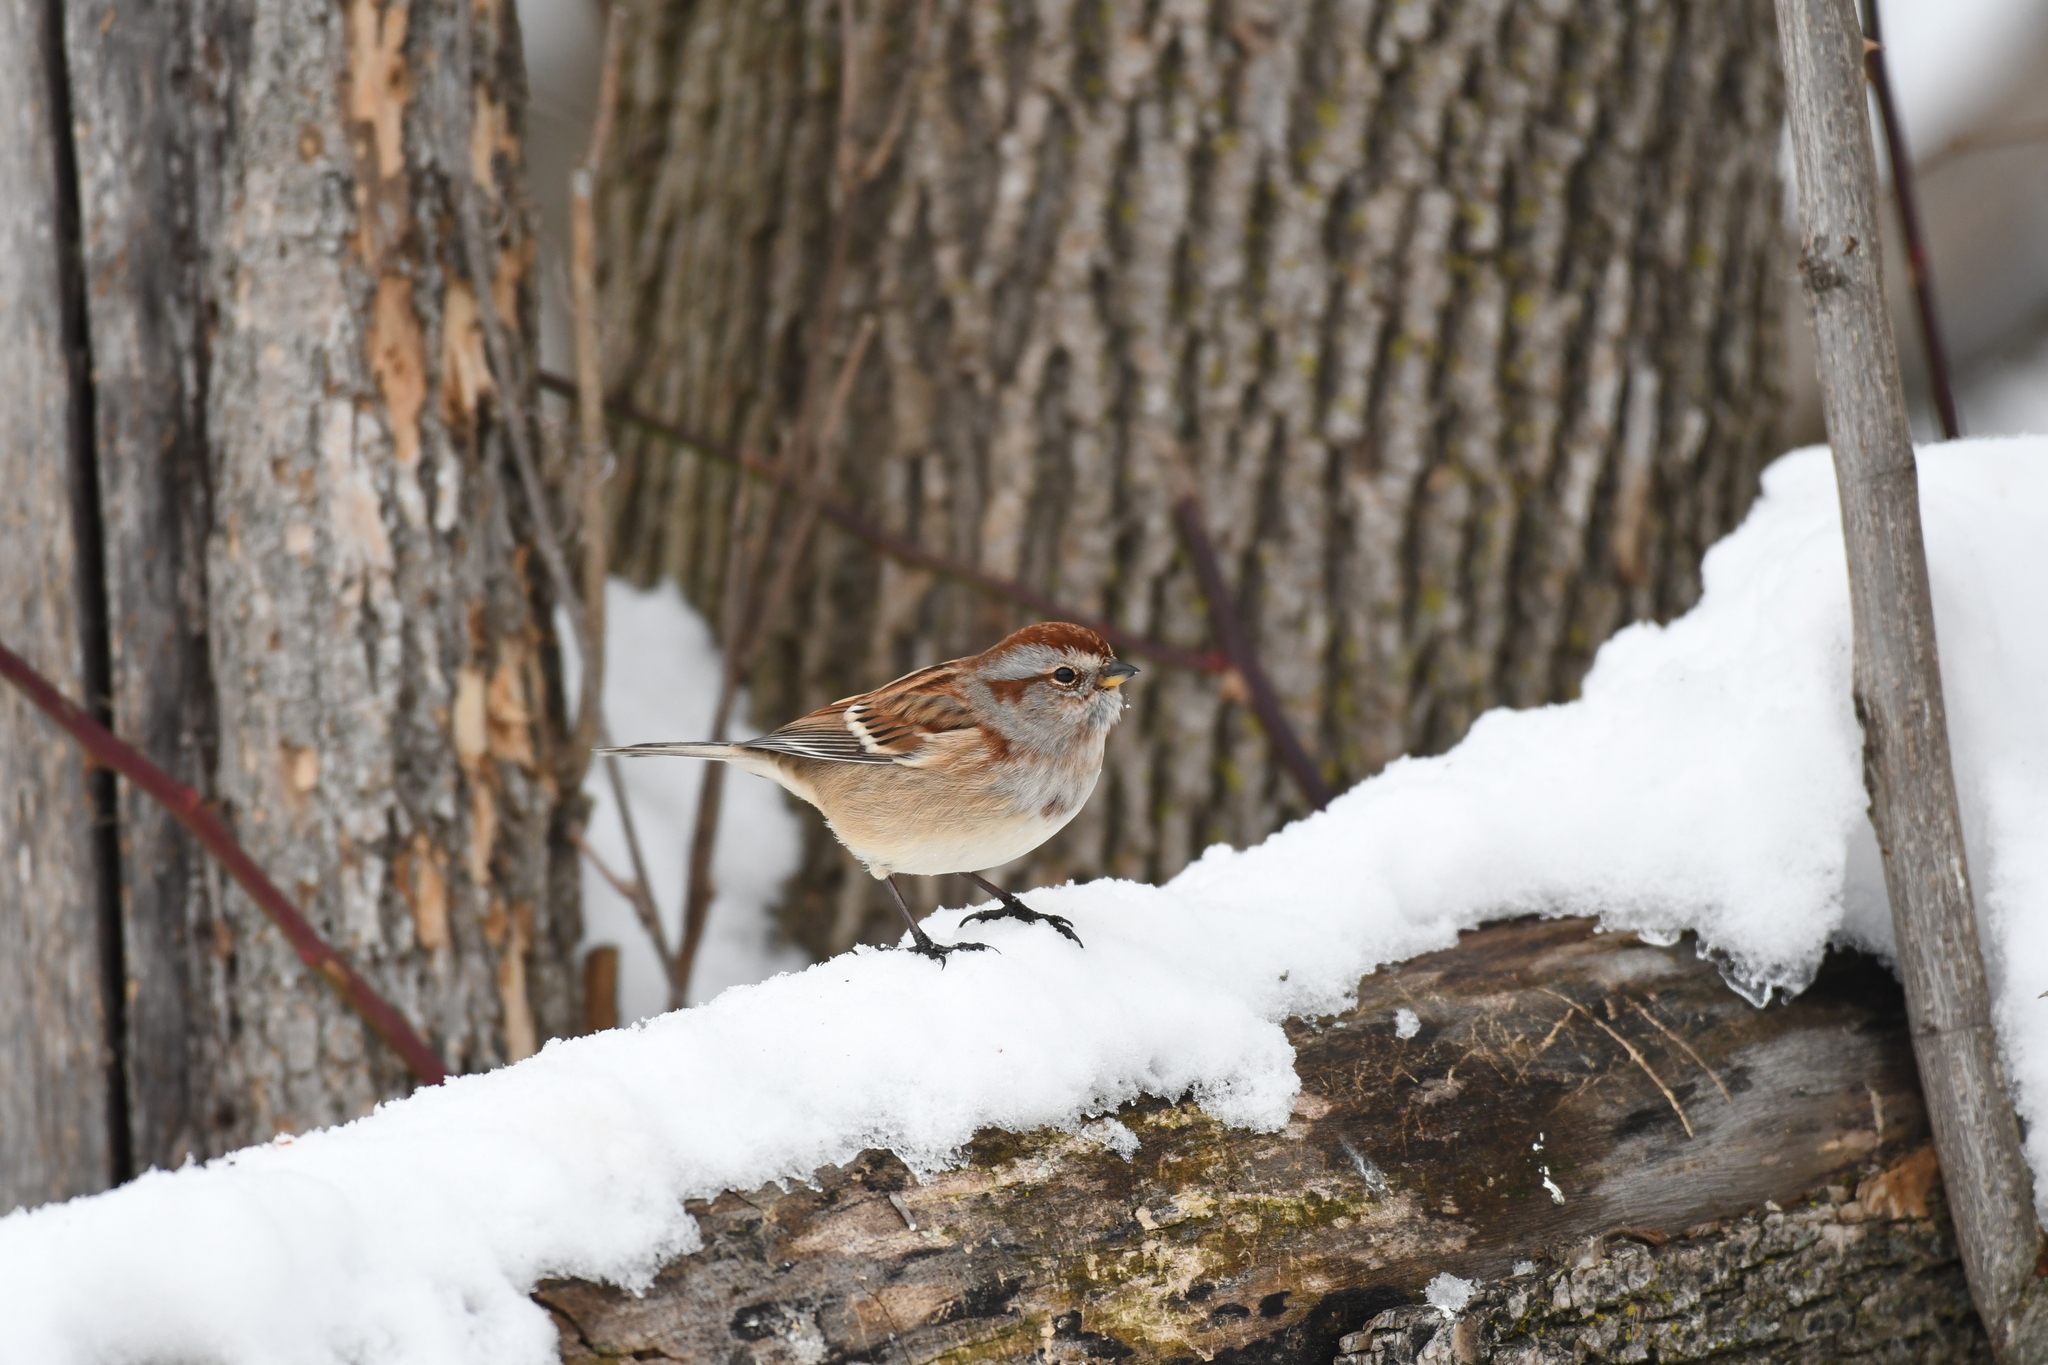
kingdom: Animalia
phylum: Chordata
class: Aves
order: Passeriformes
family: Passerellidae
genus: Spizelloides
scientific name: Spizelloides arborea
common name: American tree sparrow
